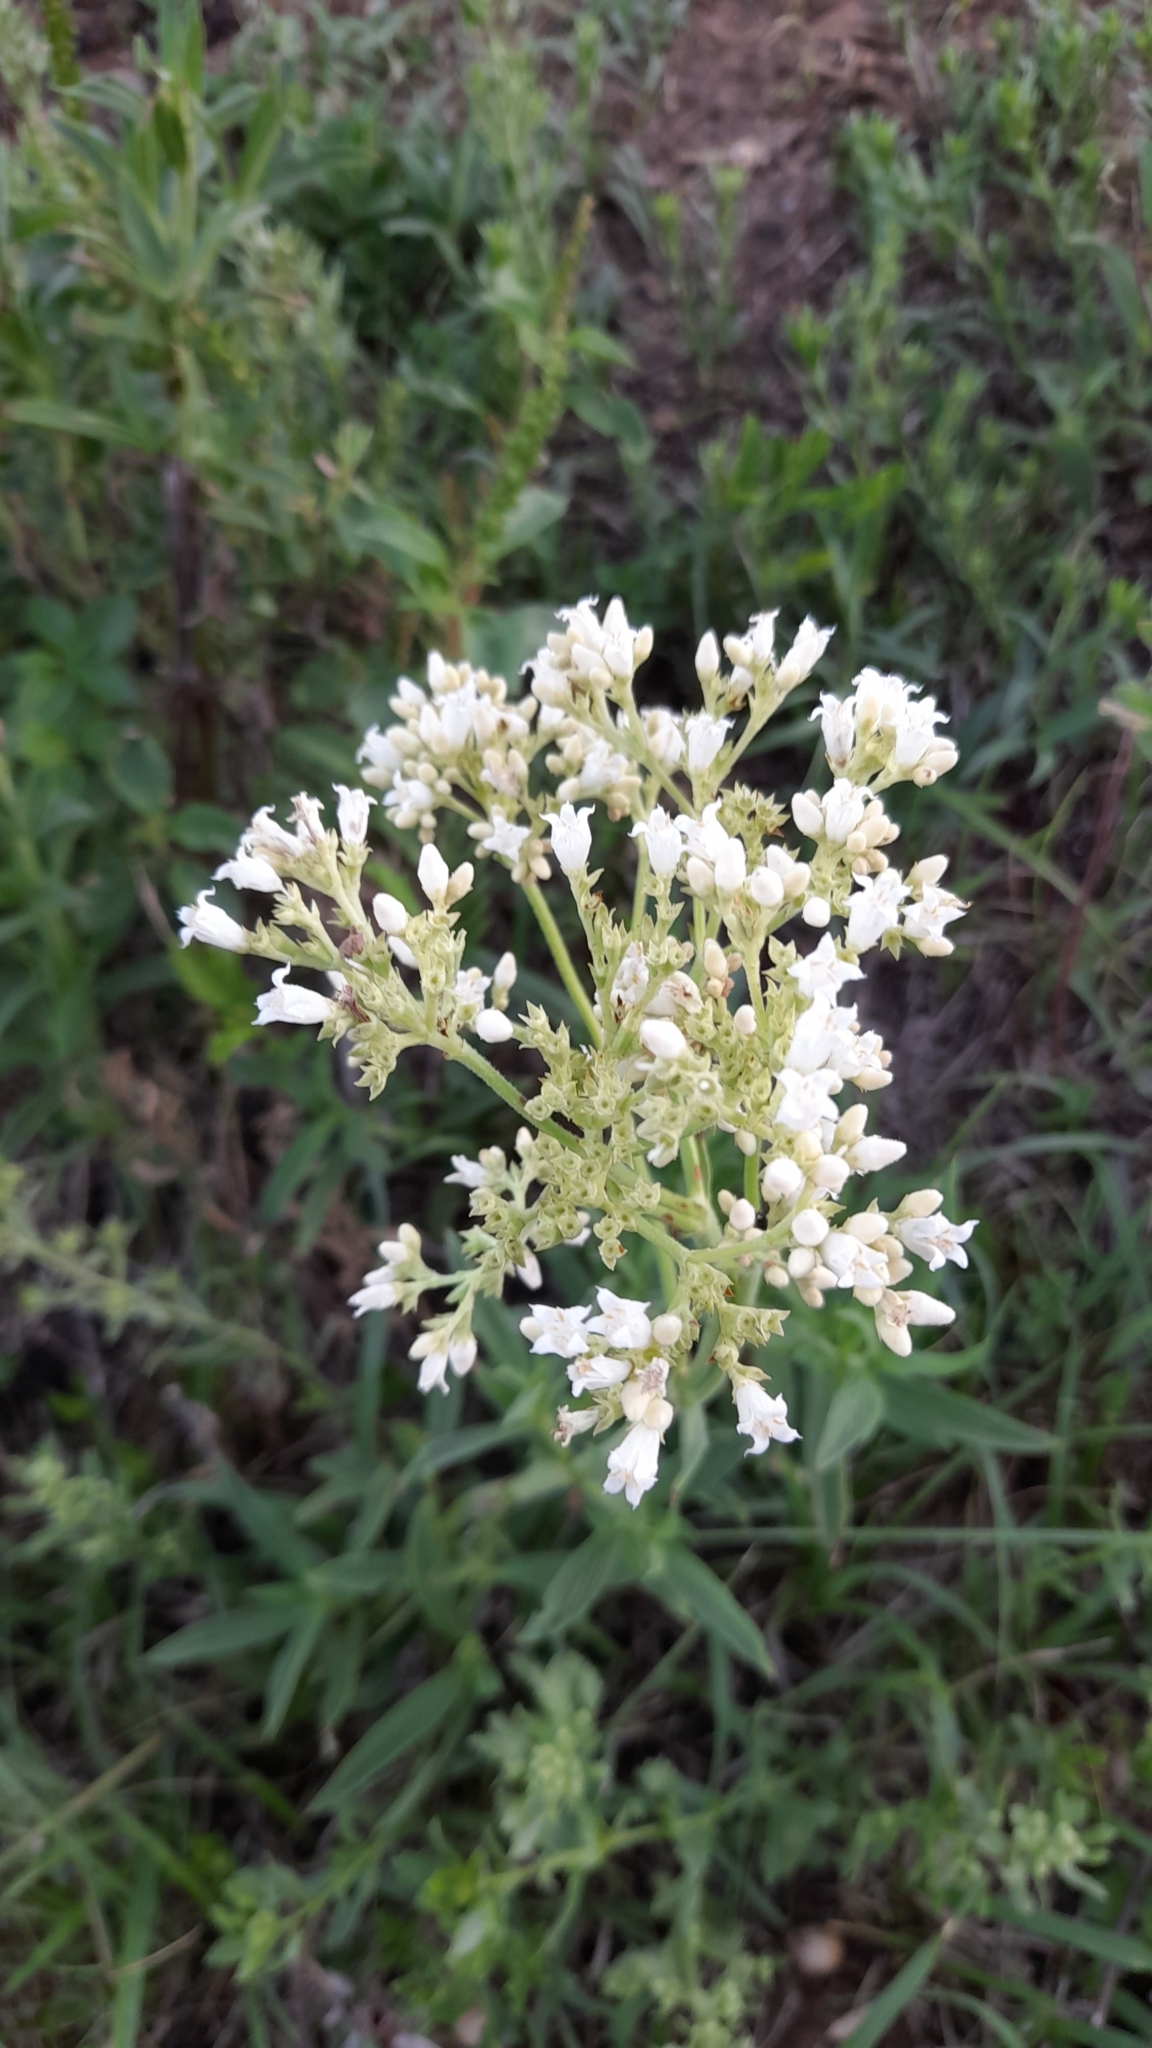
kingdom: Plantae
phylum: Tracheophyta
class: Magnoliopsida
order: Gentianales
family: Rubiaceae
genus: Galianthe
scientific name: Galianthe laxa
